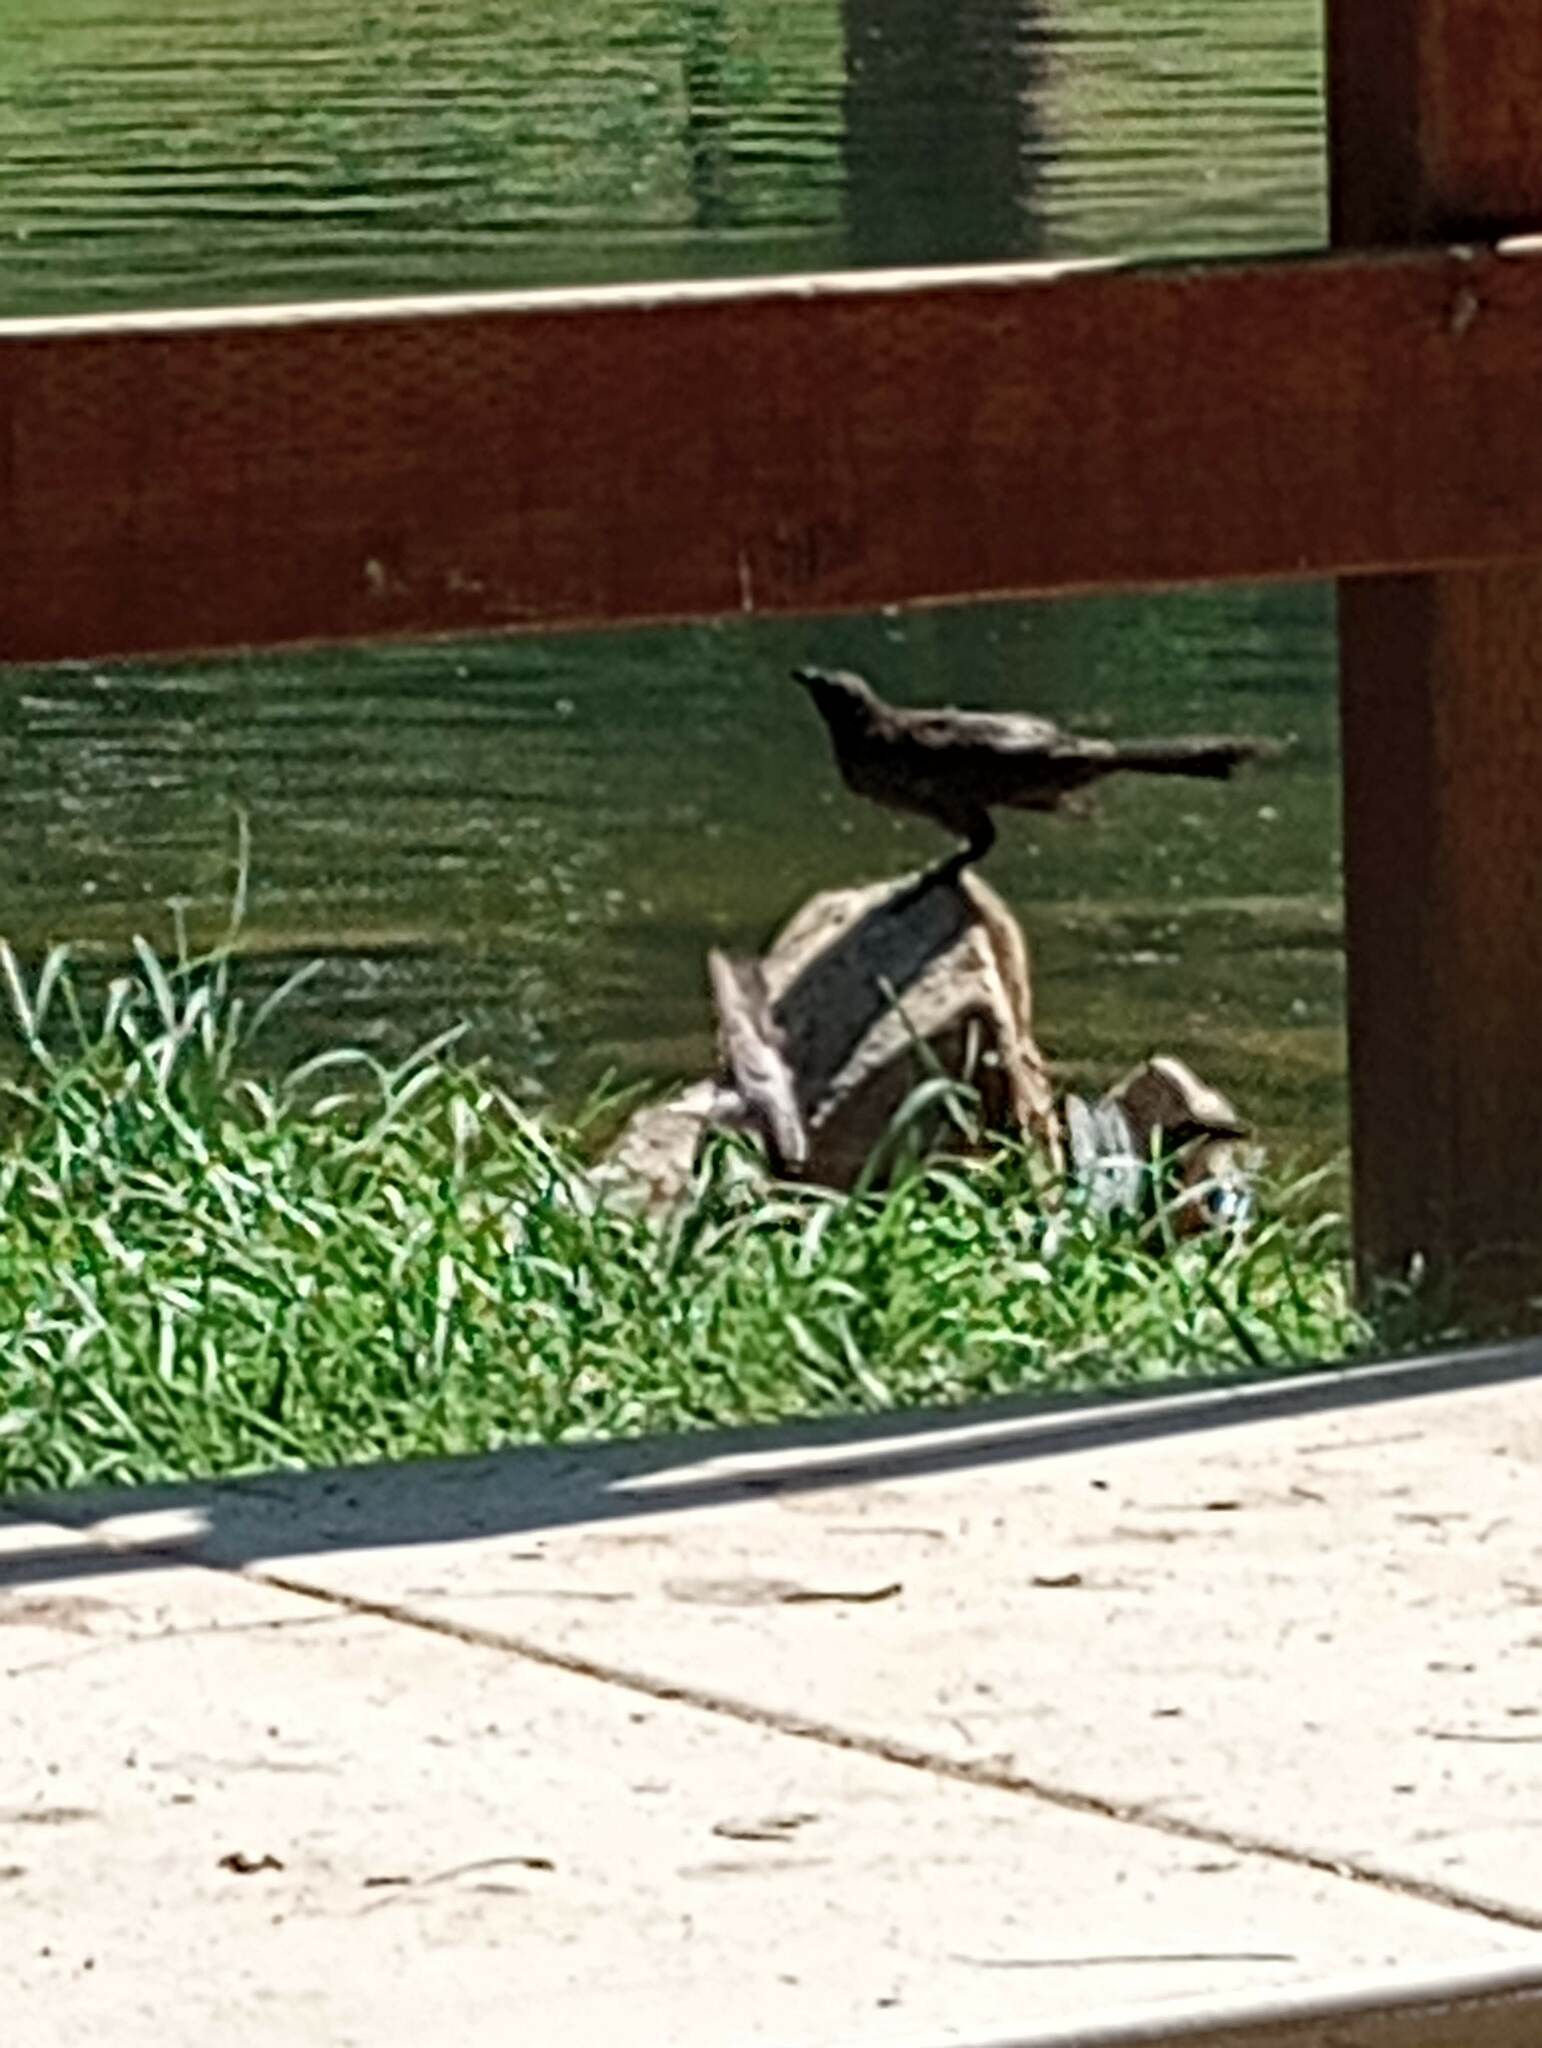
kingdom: Animalia
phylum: Chordata
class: Aves
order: Passeriformes
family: Icteridae
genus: Quiscalus
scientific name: Quiscalus mexicanus
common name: Great-tailed grackle
